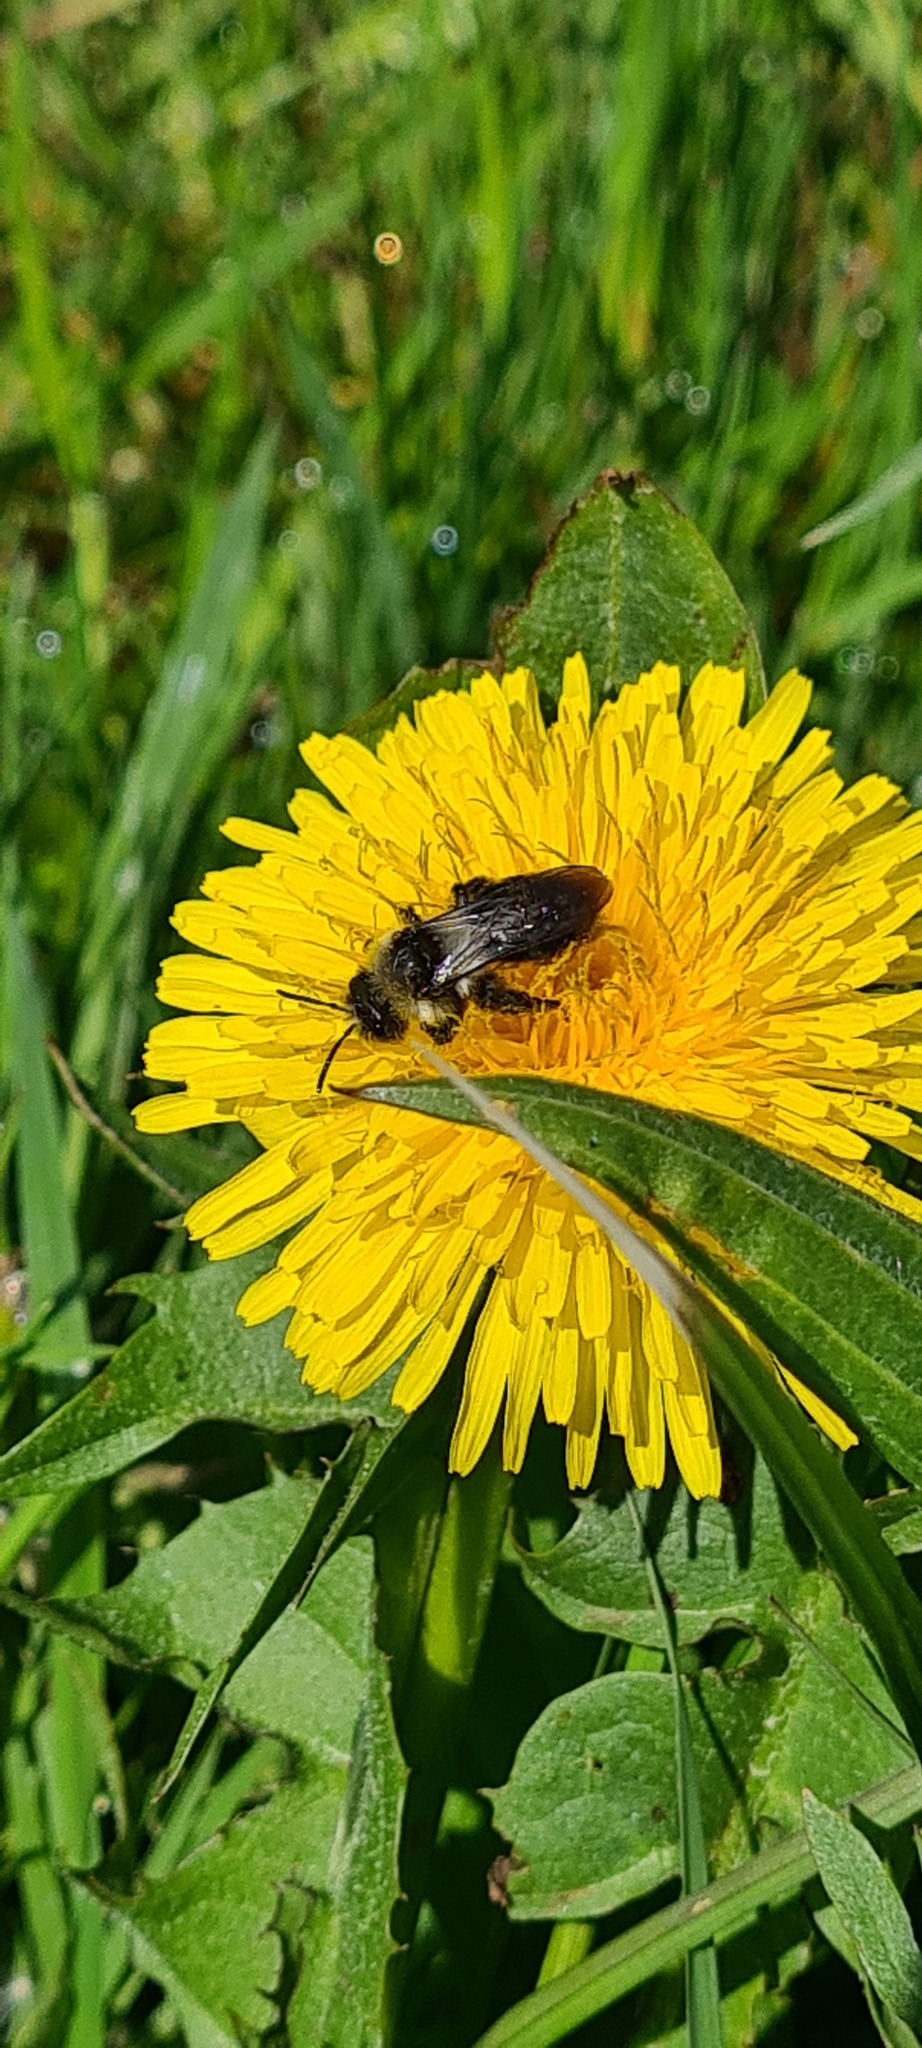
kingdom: Animalia
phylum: Arthropoda
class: Insecta
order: Hymenoptera
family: Andrenidae
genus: Andrena
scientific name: Andrena cineraria
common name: Ashy mining bee
